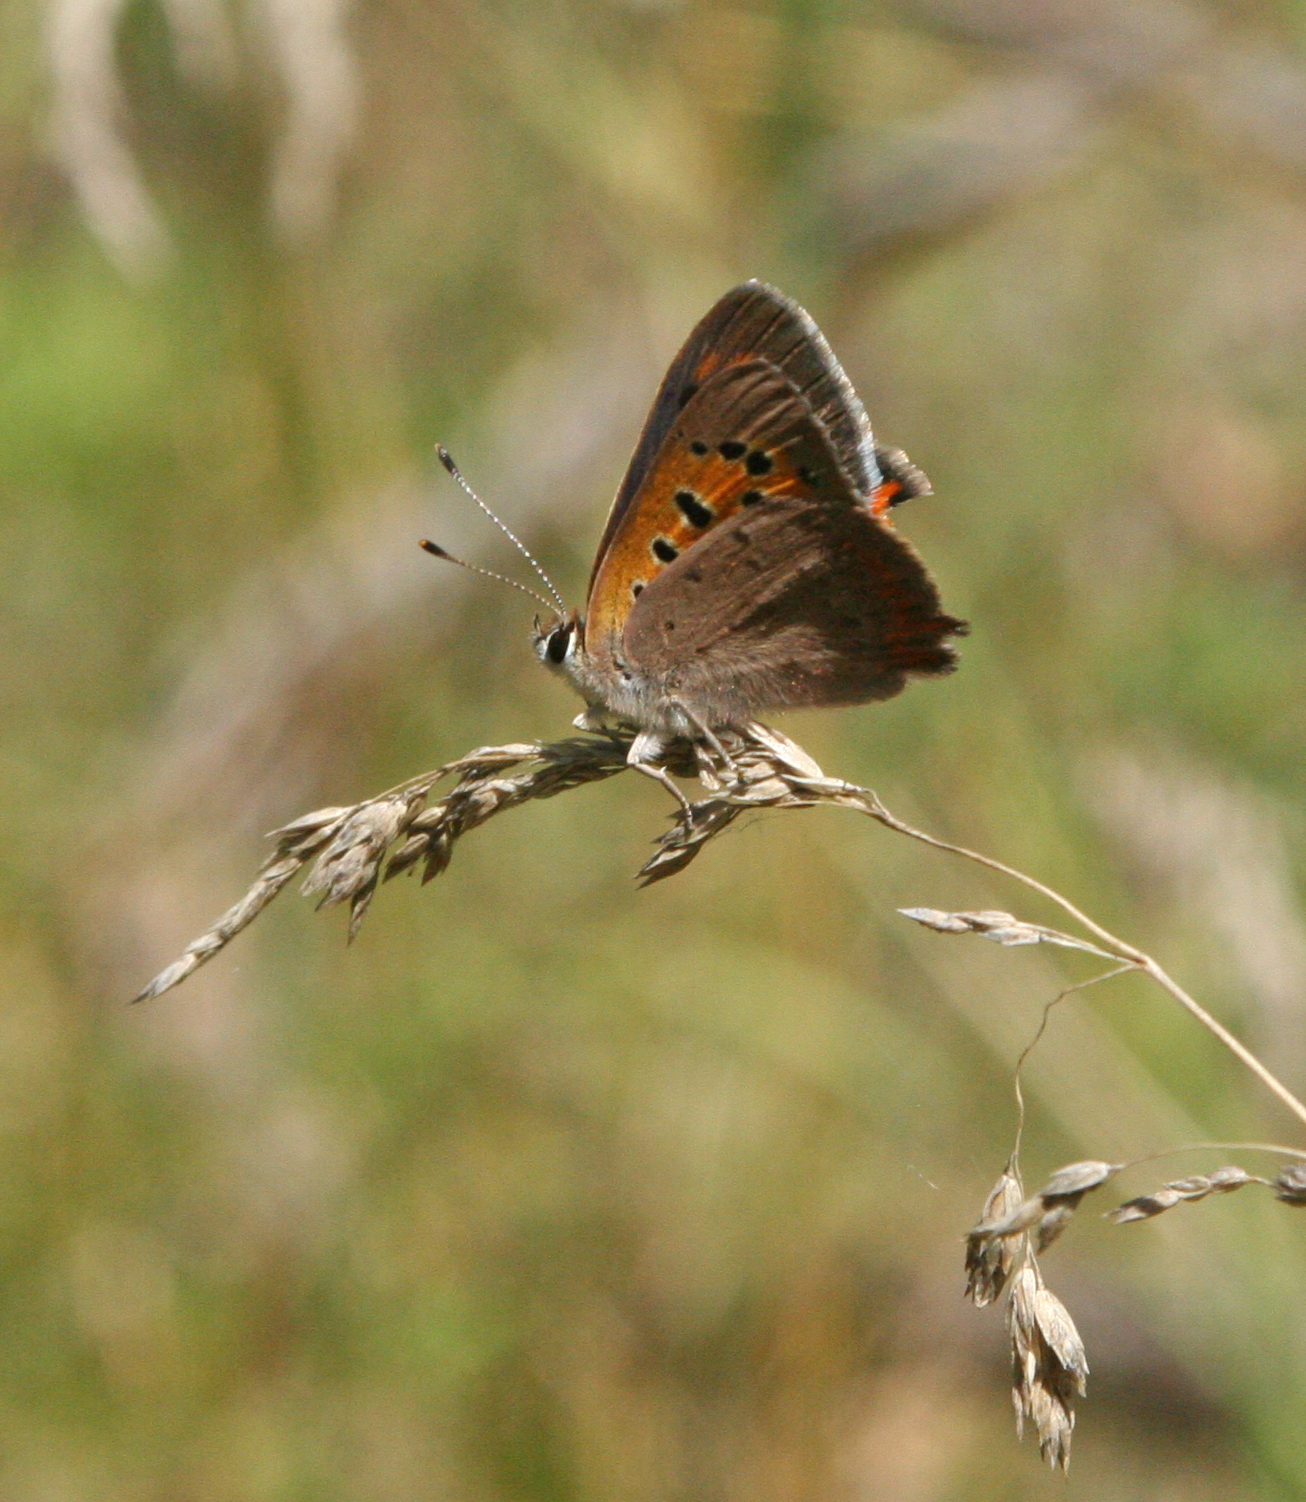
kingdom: Animalia
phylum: Arthropoda
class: Insecta
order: Lepidoptera
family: Lycaenidae
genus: Lycaena
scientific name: Lycaena phlaeas
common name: Small copper
